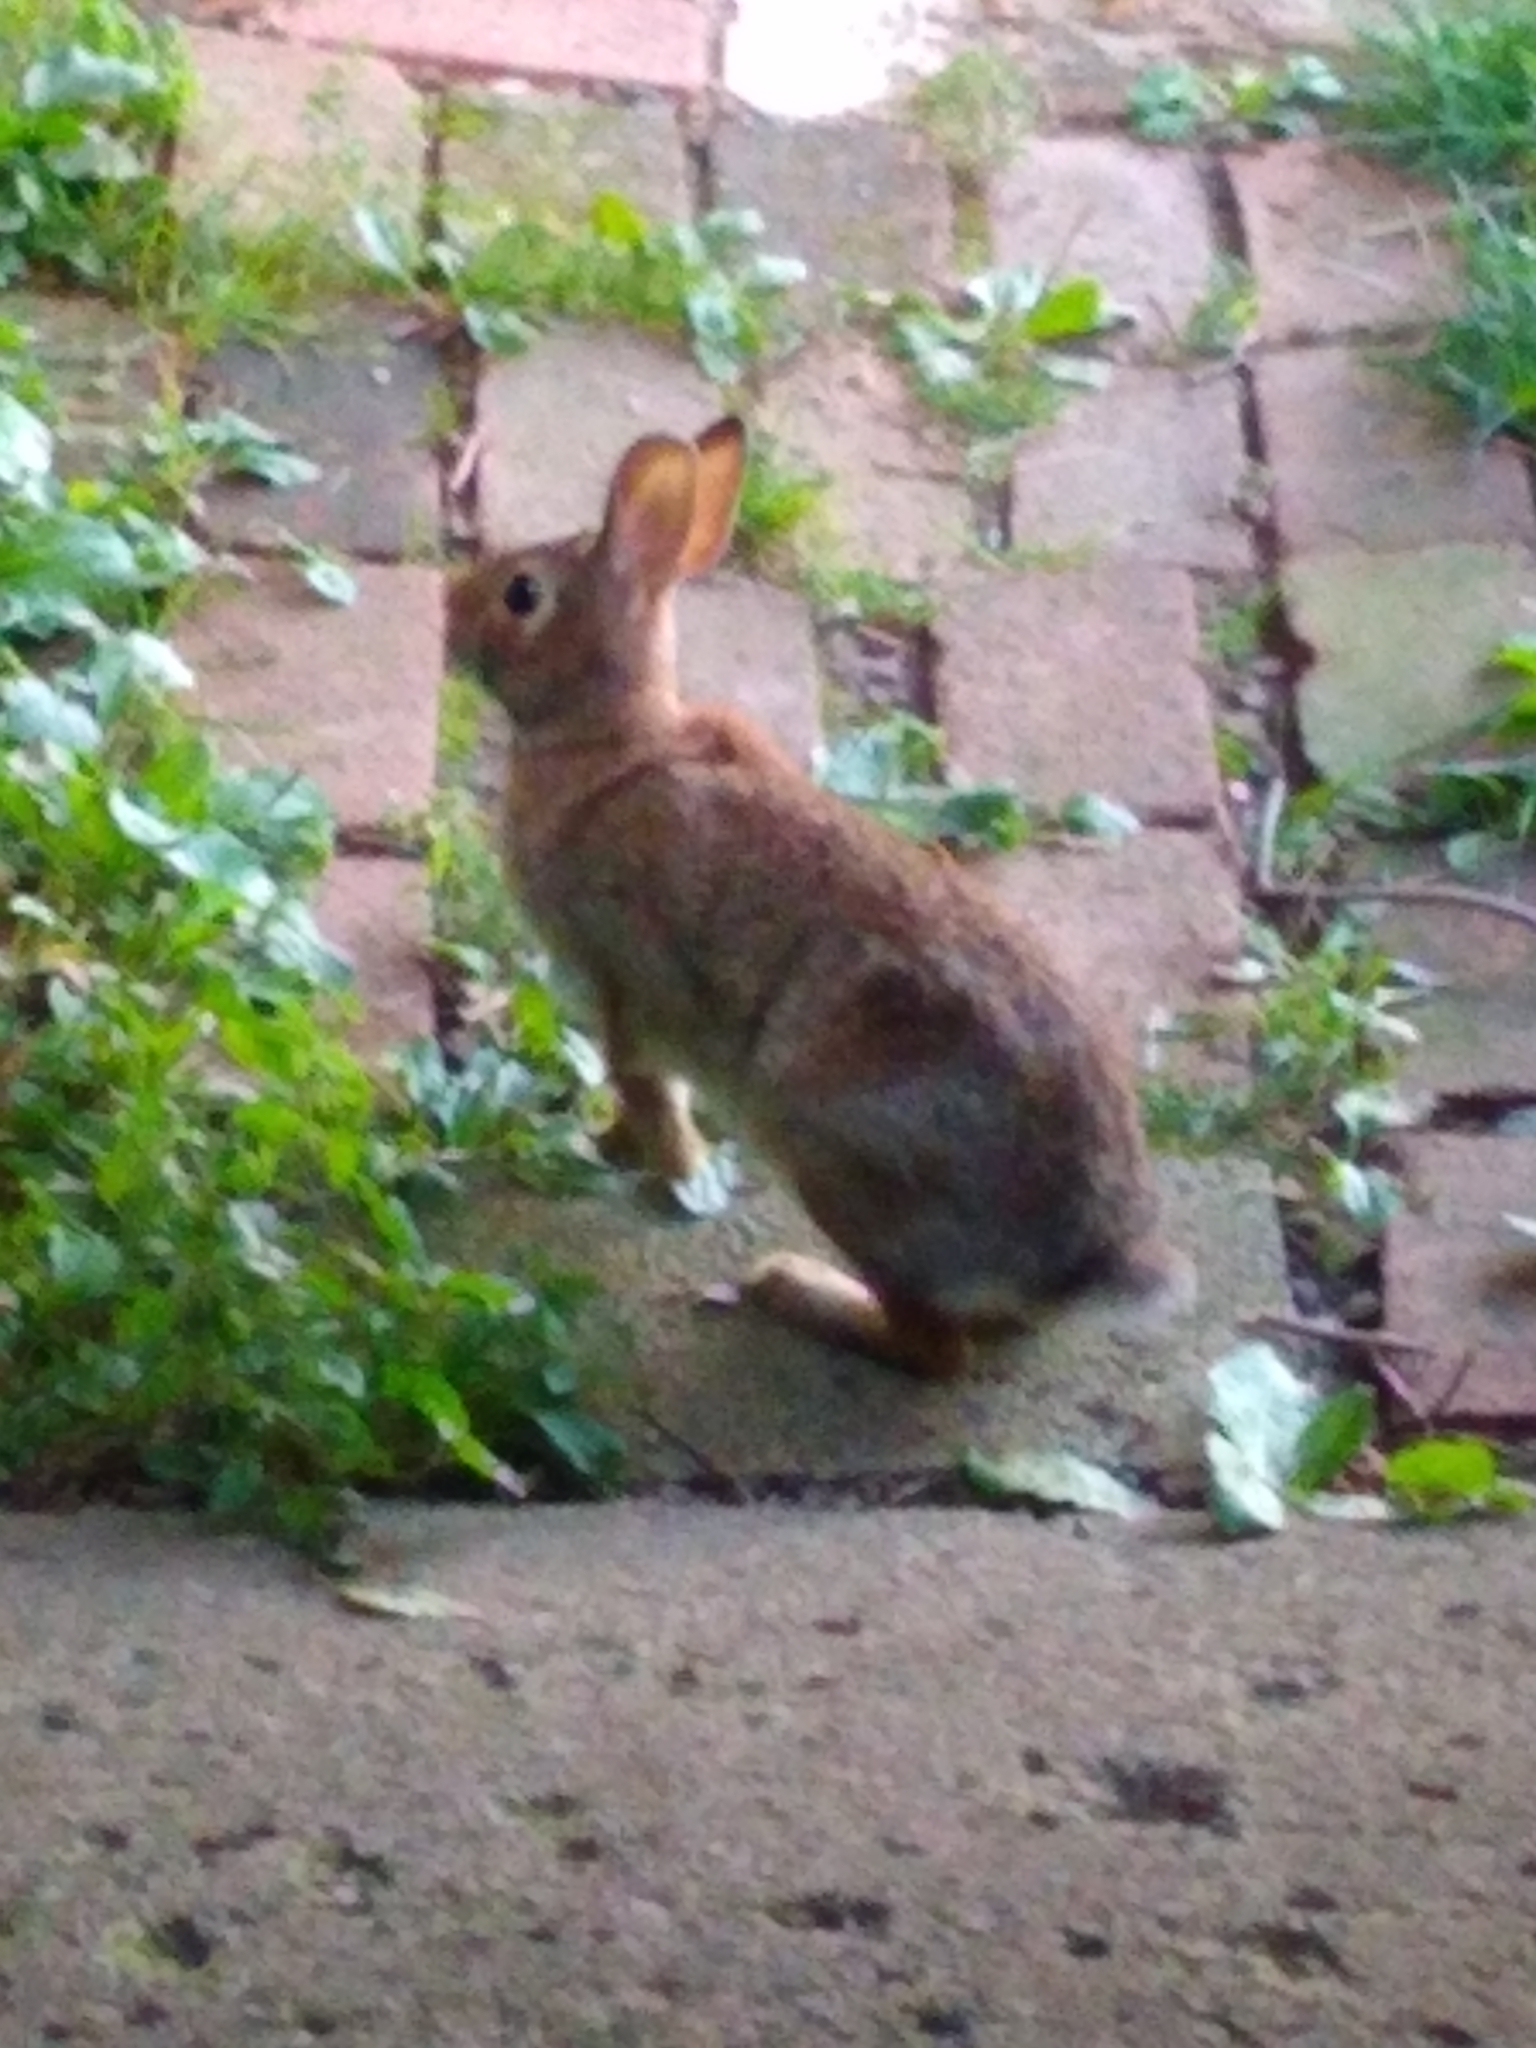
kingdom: Animalia
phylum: Chordata
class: Mammalia
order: Lagomorpha
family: Leporidae
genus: Sylvilagus
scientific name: Sylvilagus floridanus
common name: Eastern cottontail
